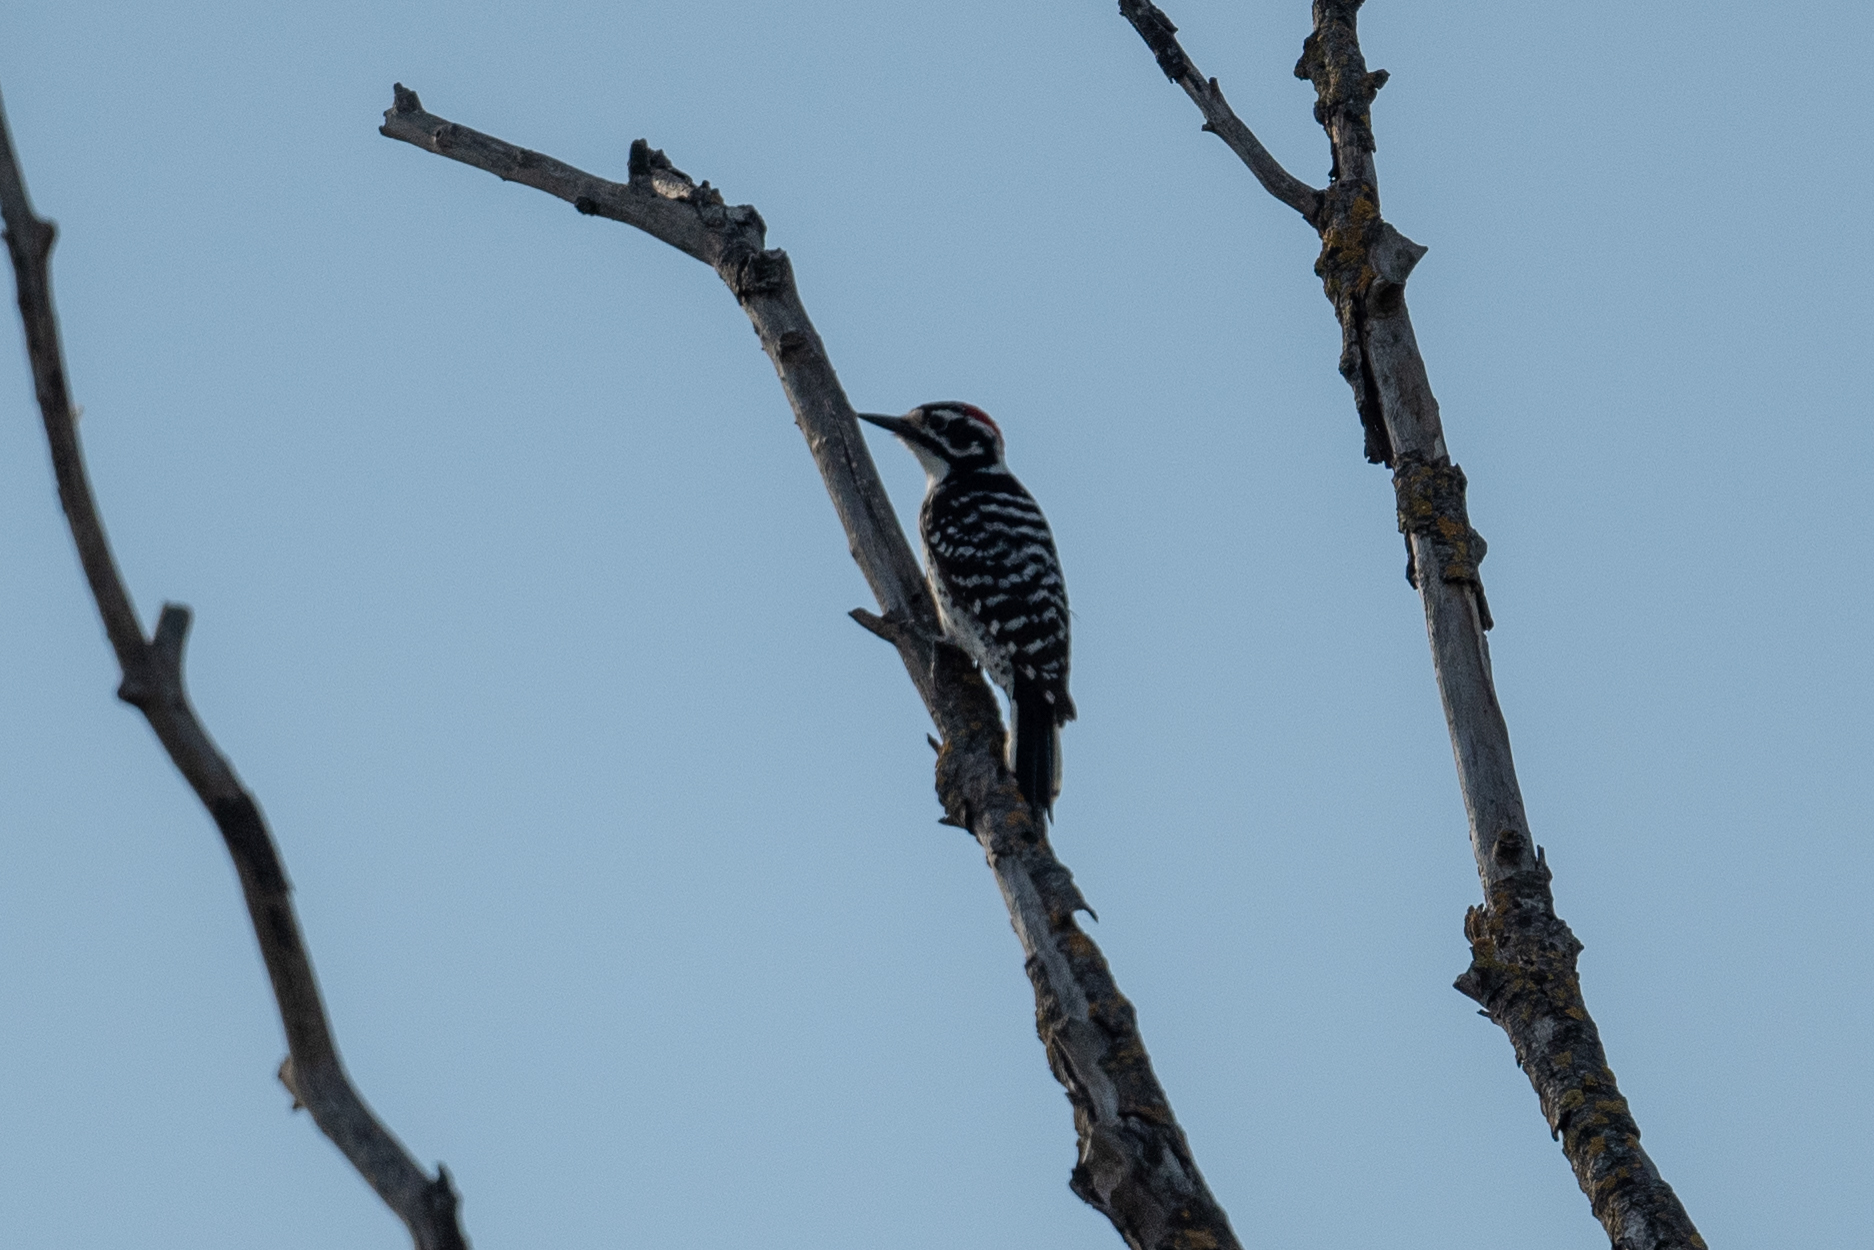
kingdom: Animalia
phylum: Chordata
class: Aves
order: Piciformes
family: Picidae
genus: Dryobates
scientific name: Dryobates nuttallii
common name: Nuttall's woodpecker
